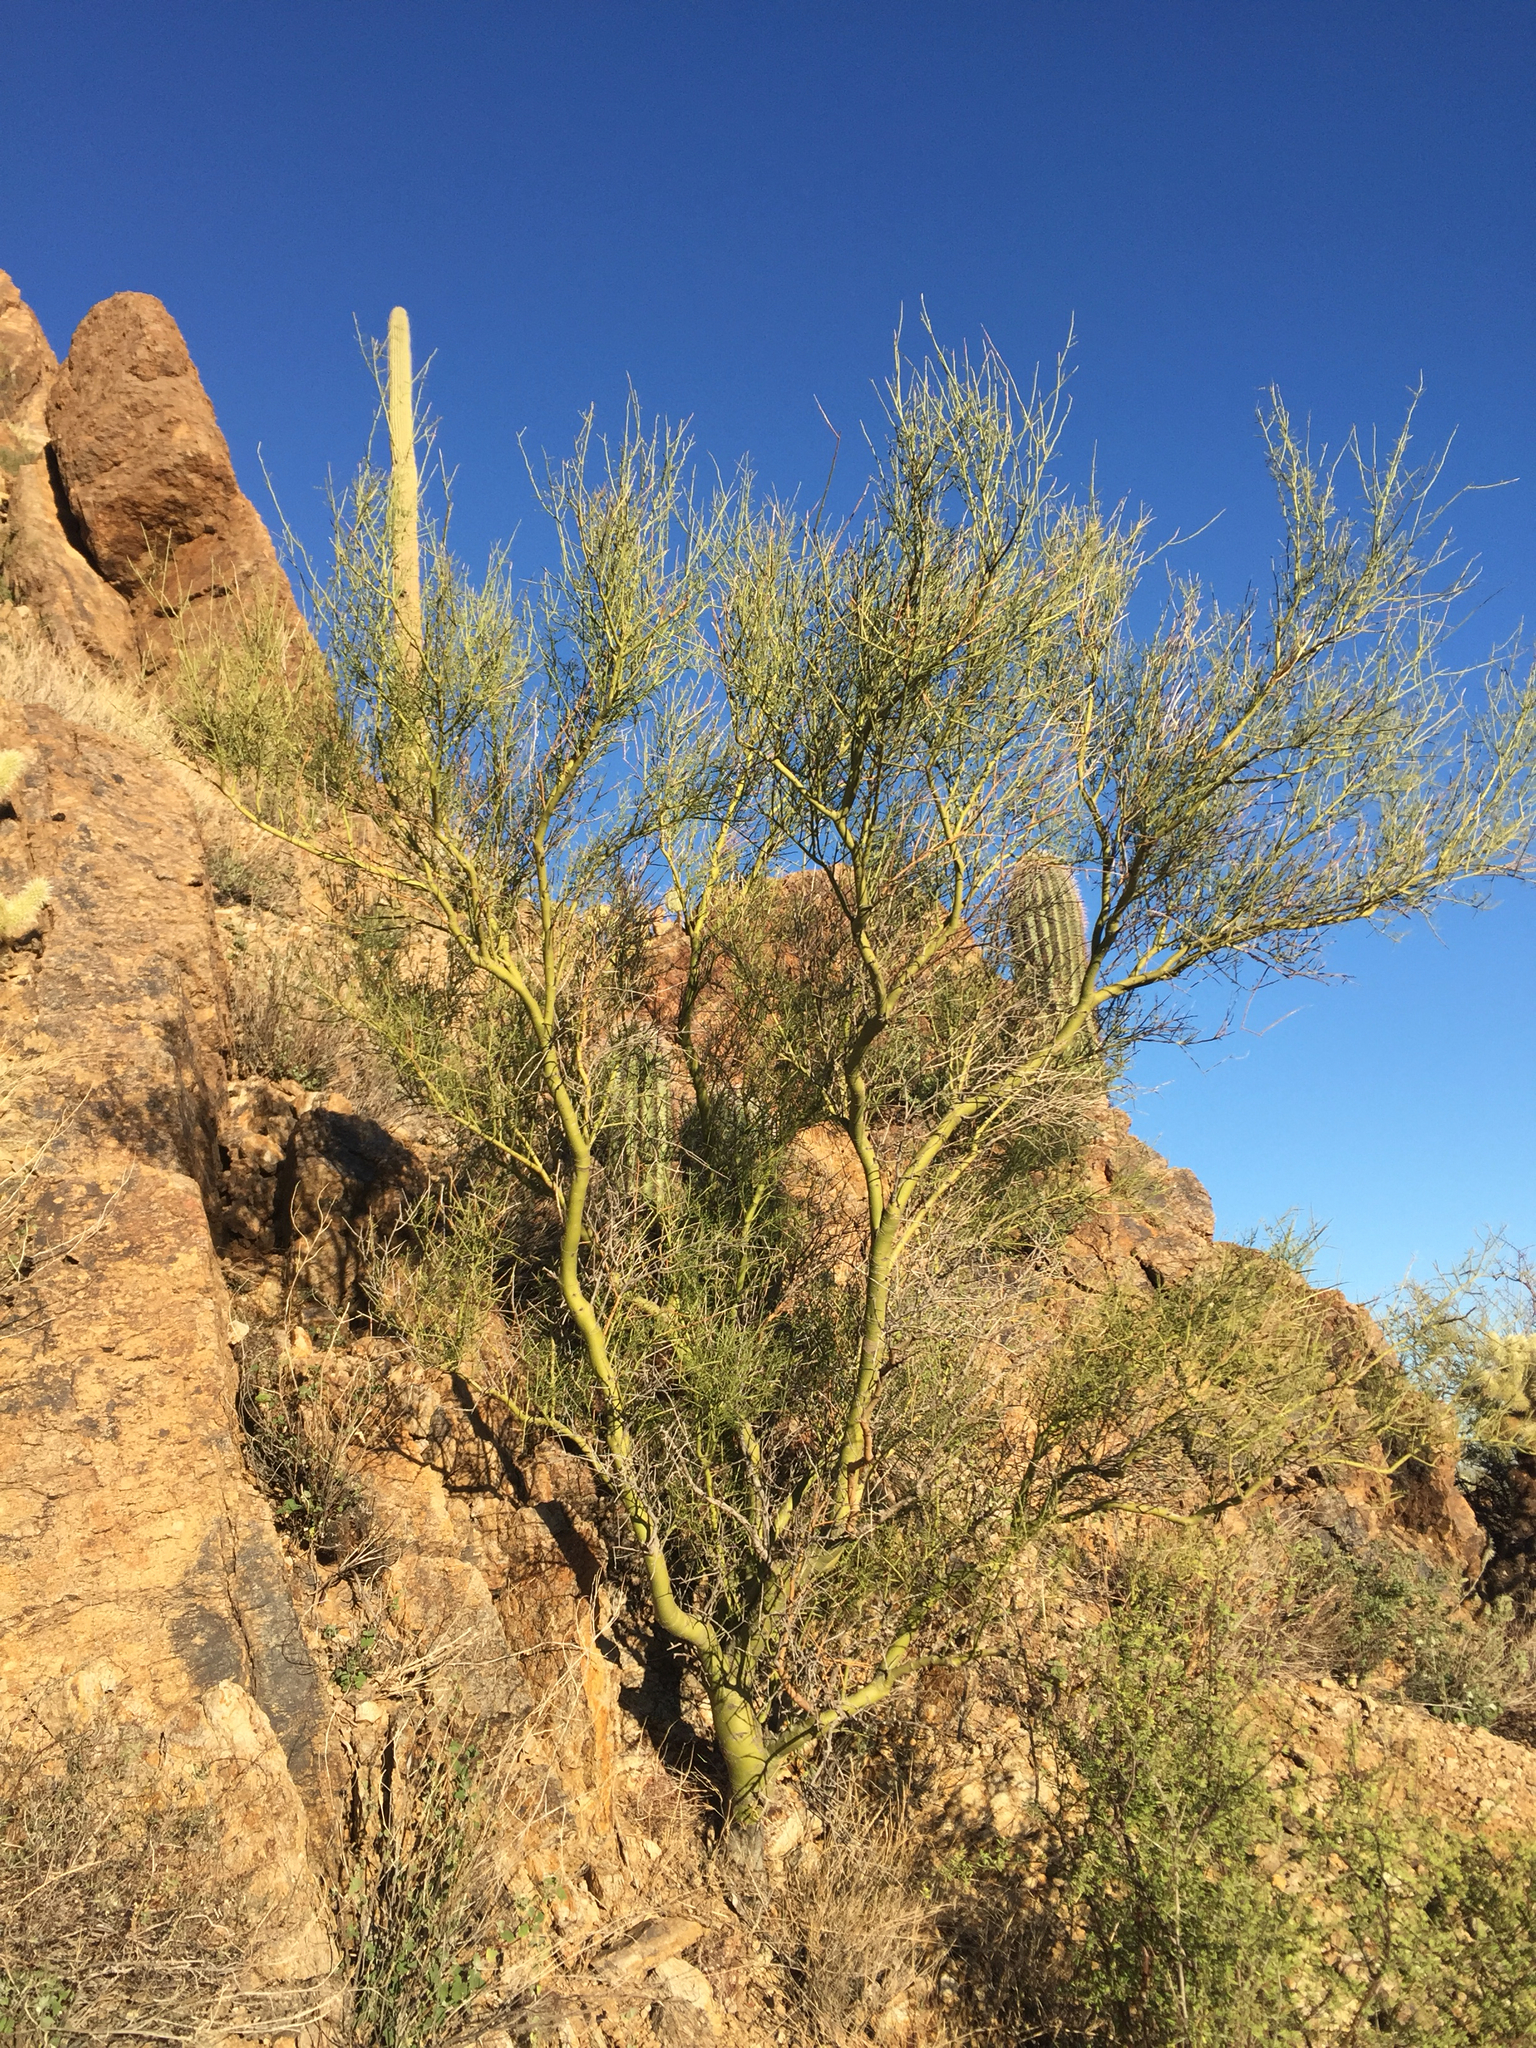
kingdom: Plantae
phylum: Tracheophyta
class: Magnoliopsida
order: Fabales
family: Fabaceae
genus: Parkinsonia
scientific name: Parkinsonia microphylla
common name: Yellow paloverde
